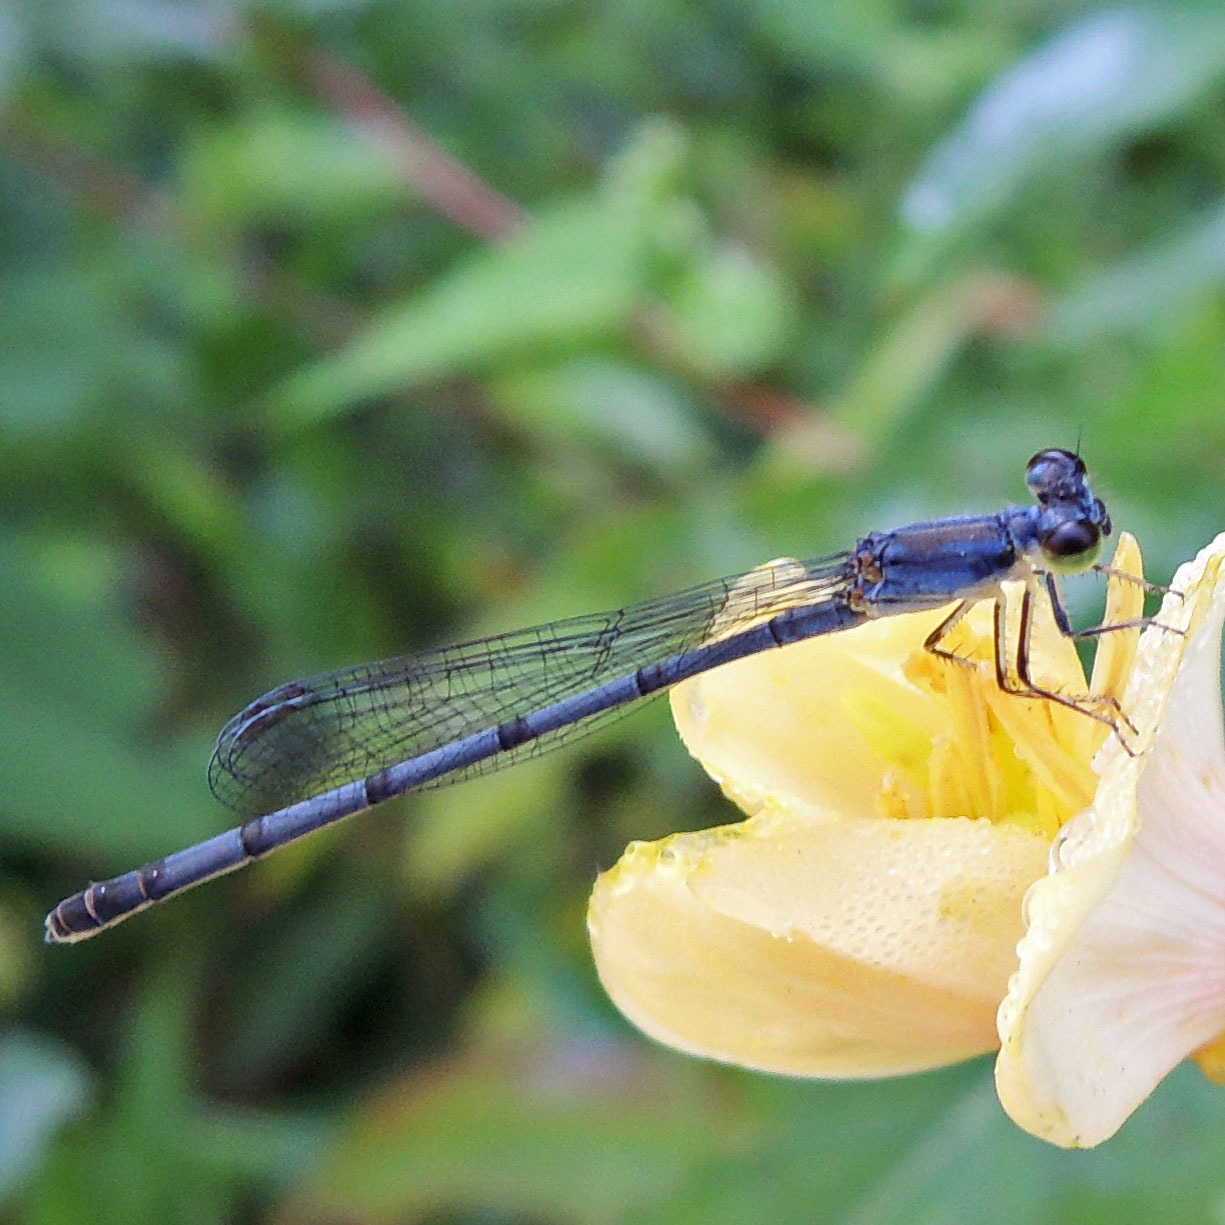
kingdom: Animalia
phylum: Arthropoda
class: Insecta
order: Odonata
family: Coenagrionidae
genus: Ischnura
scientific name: Ischnura posita
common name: Fragile forktail
